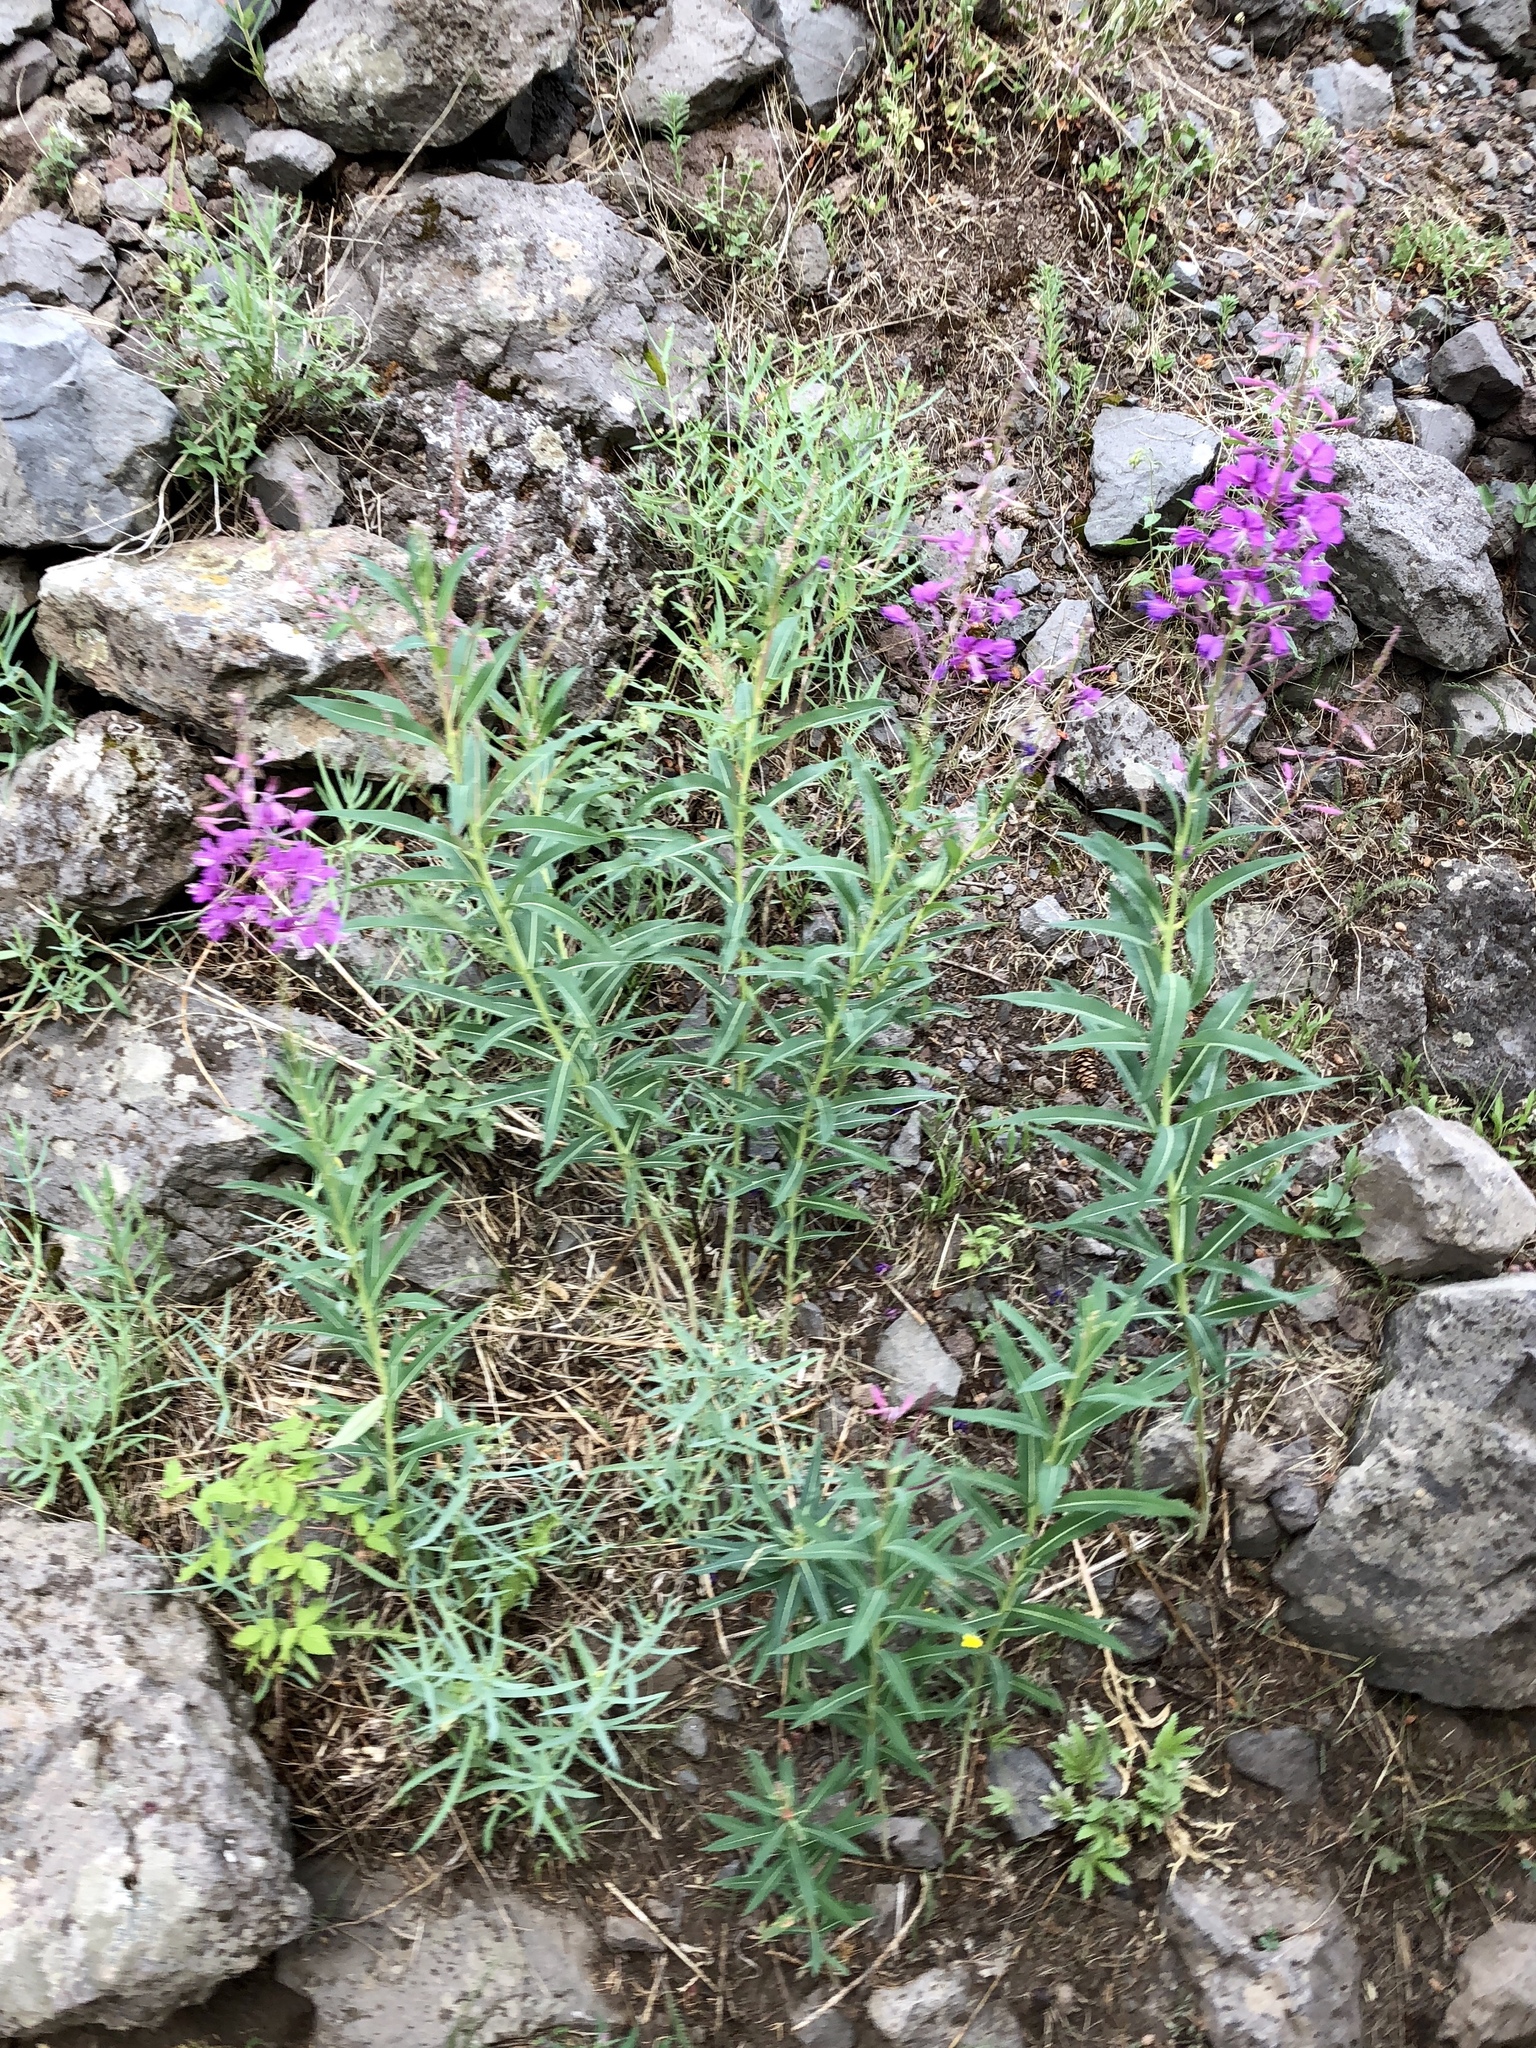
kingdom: Plantae
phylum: Tracheophyta
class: Magnoliopsida
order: Myrtales
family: Onagraceae
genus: Chamaenerion
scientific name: Chamaenerion angustifolium
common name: Fireweed
